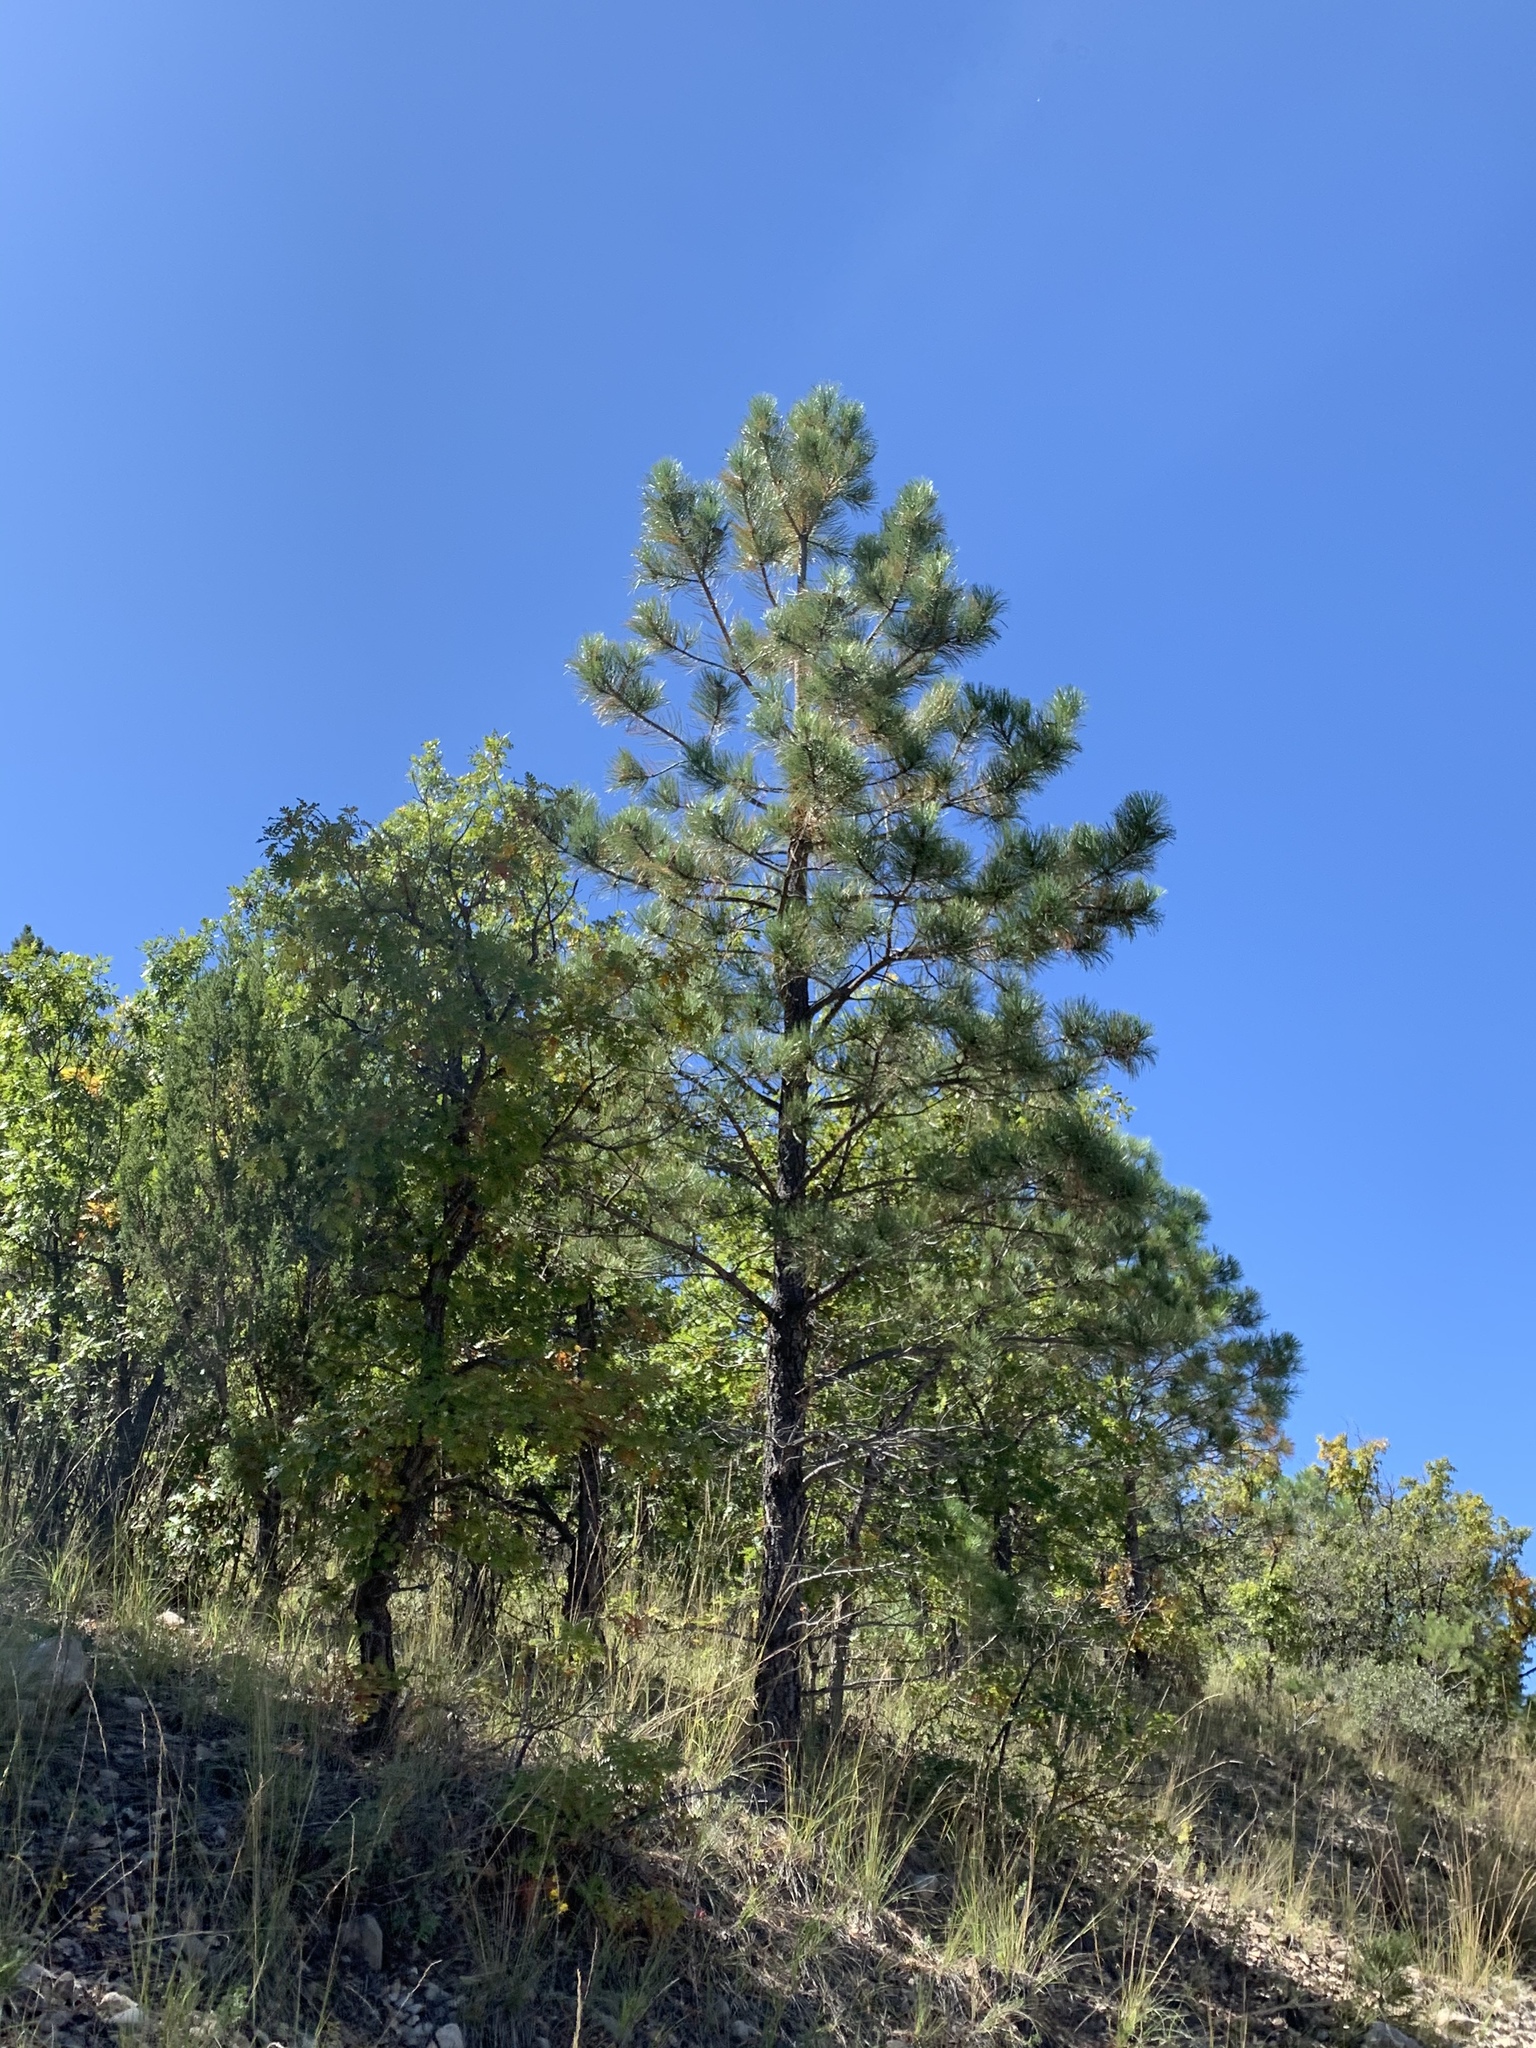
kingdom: Plantae
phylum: Tracheophyta
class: Pinopsida
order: Pinales
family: Pinaceae
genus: Pinus
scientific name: Pinus ponderosa
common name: Western yellow-pine
